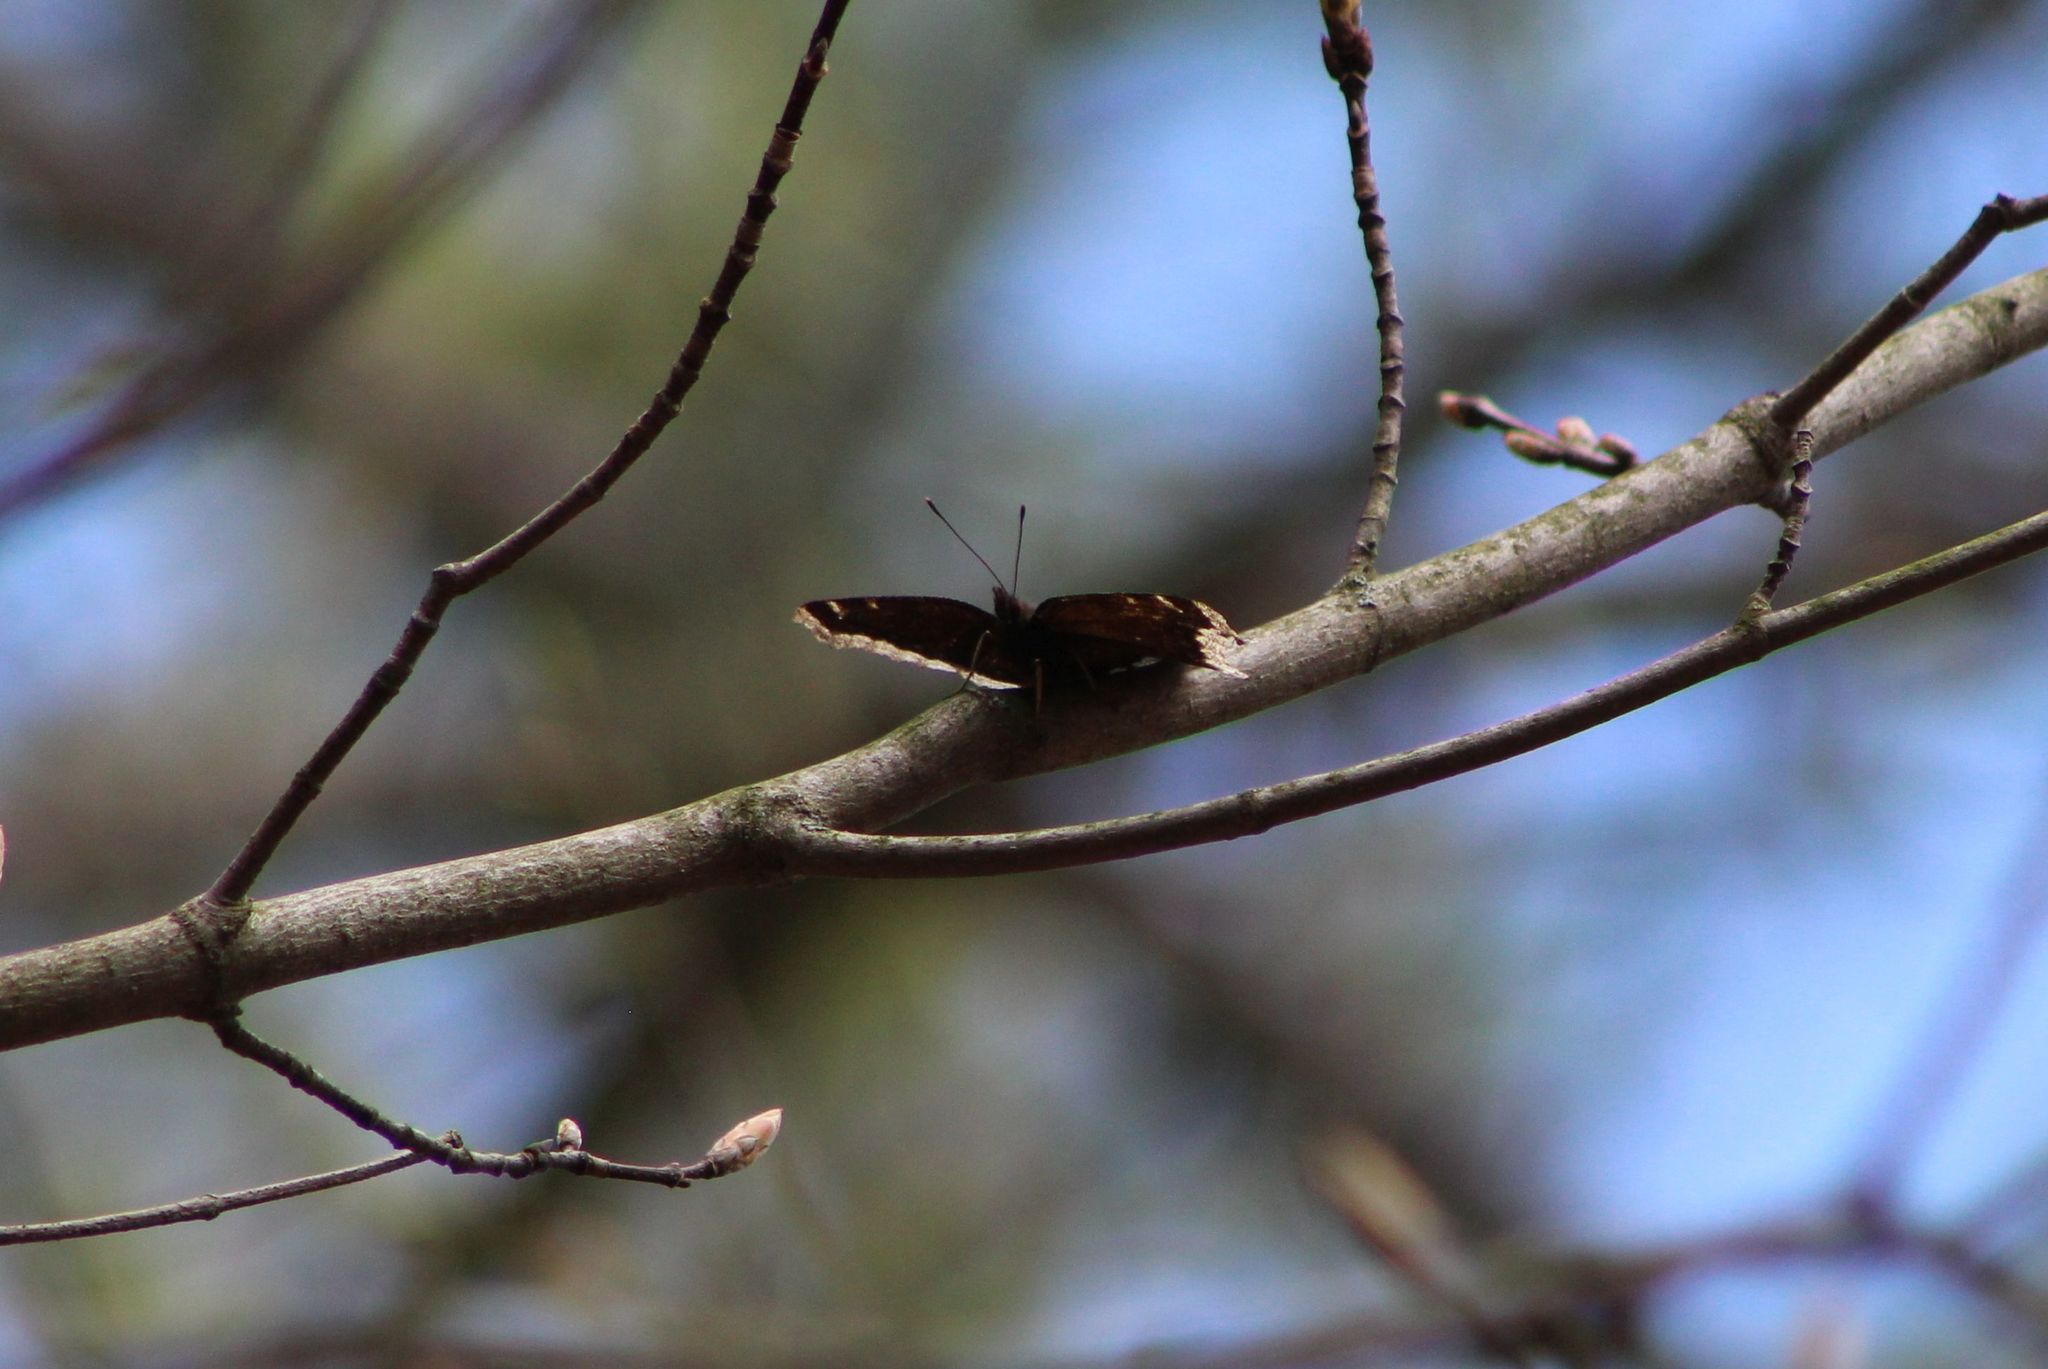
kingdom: Animalia
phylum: Arthropoda
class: Insecta
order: Lepidoptera
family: Nymphalidae
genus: Nymphalis
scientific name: Nymphalis antiopa
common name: Camberwell beauty
